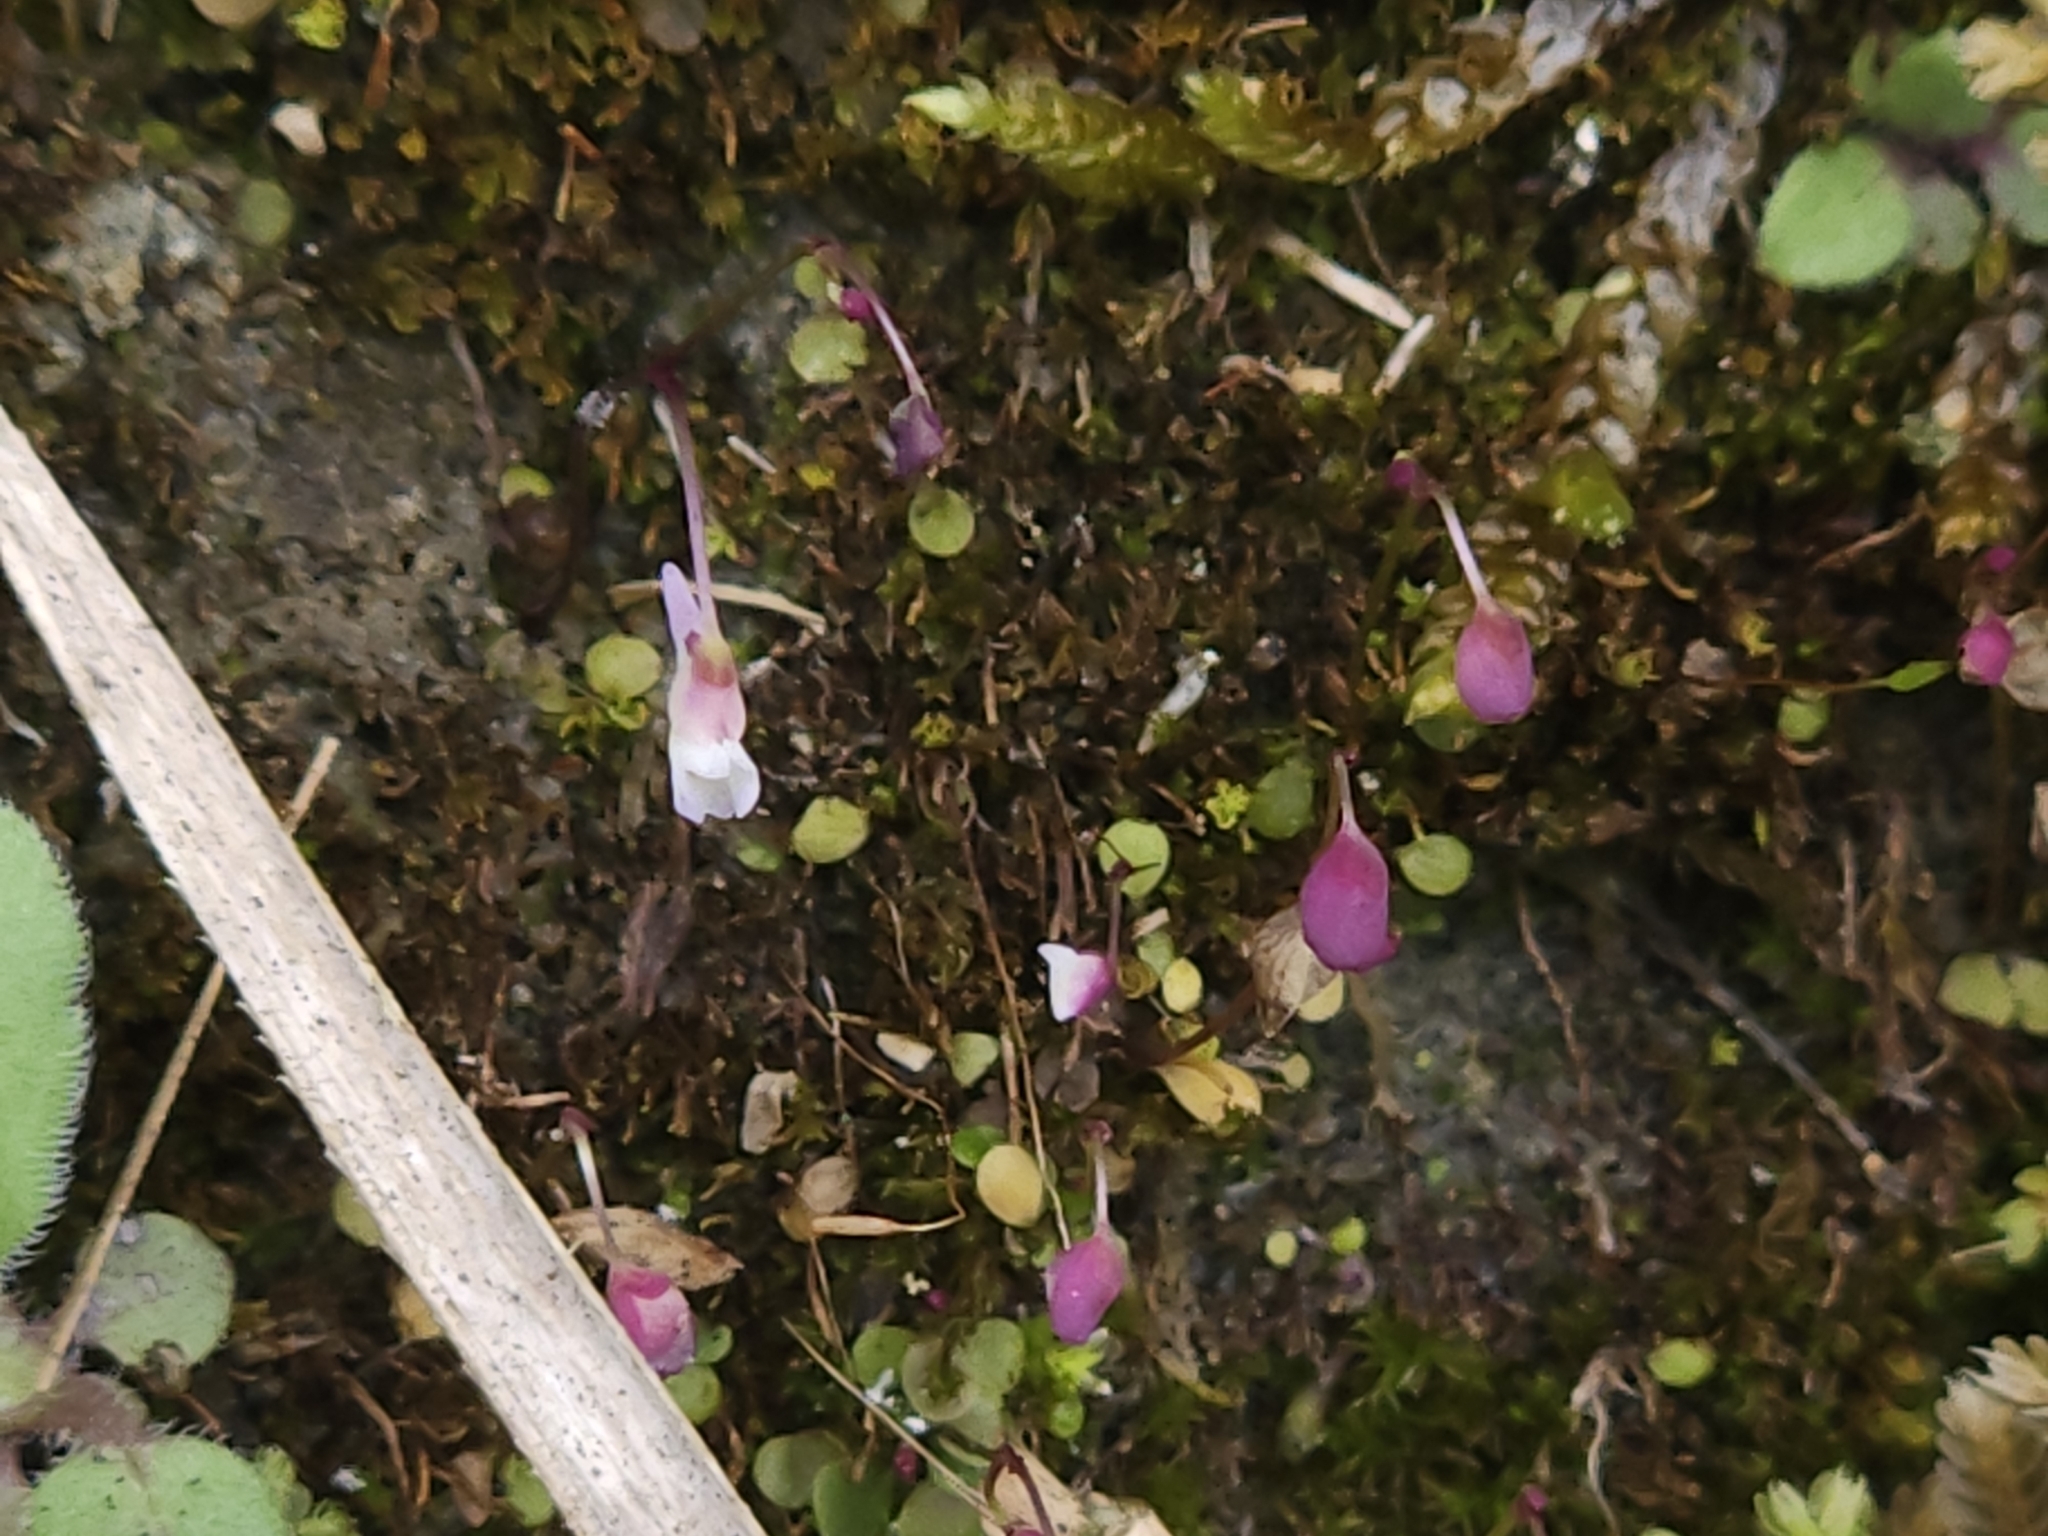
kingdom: Plantae
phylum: Tracheophyta
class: Magnoliopsida
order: Lamiales
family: Lentibulariaceae
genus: Utricularia
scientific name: Utricularia striatula
